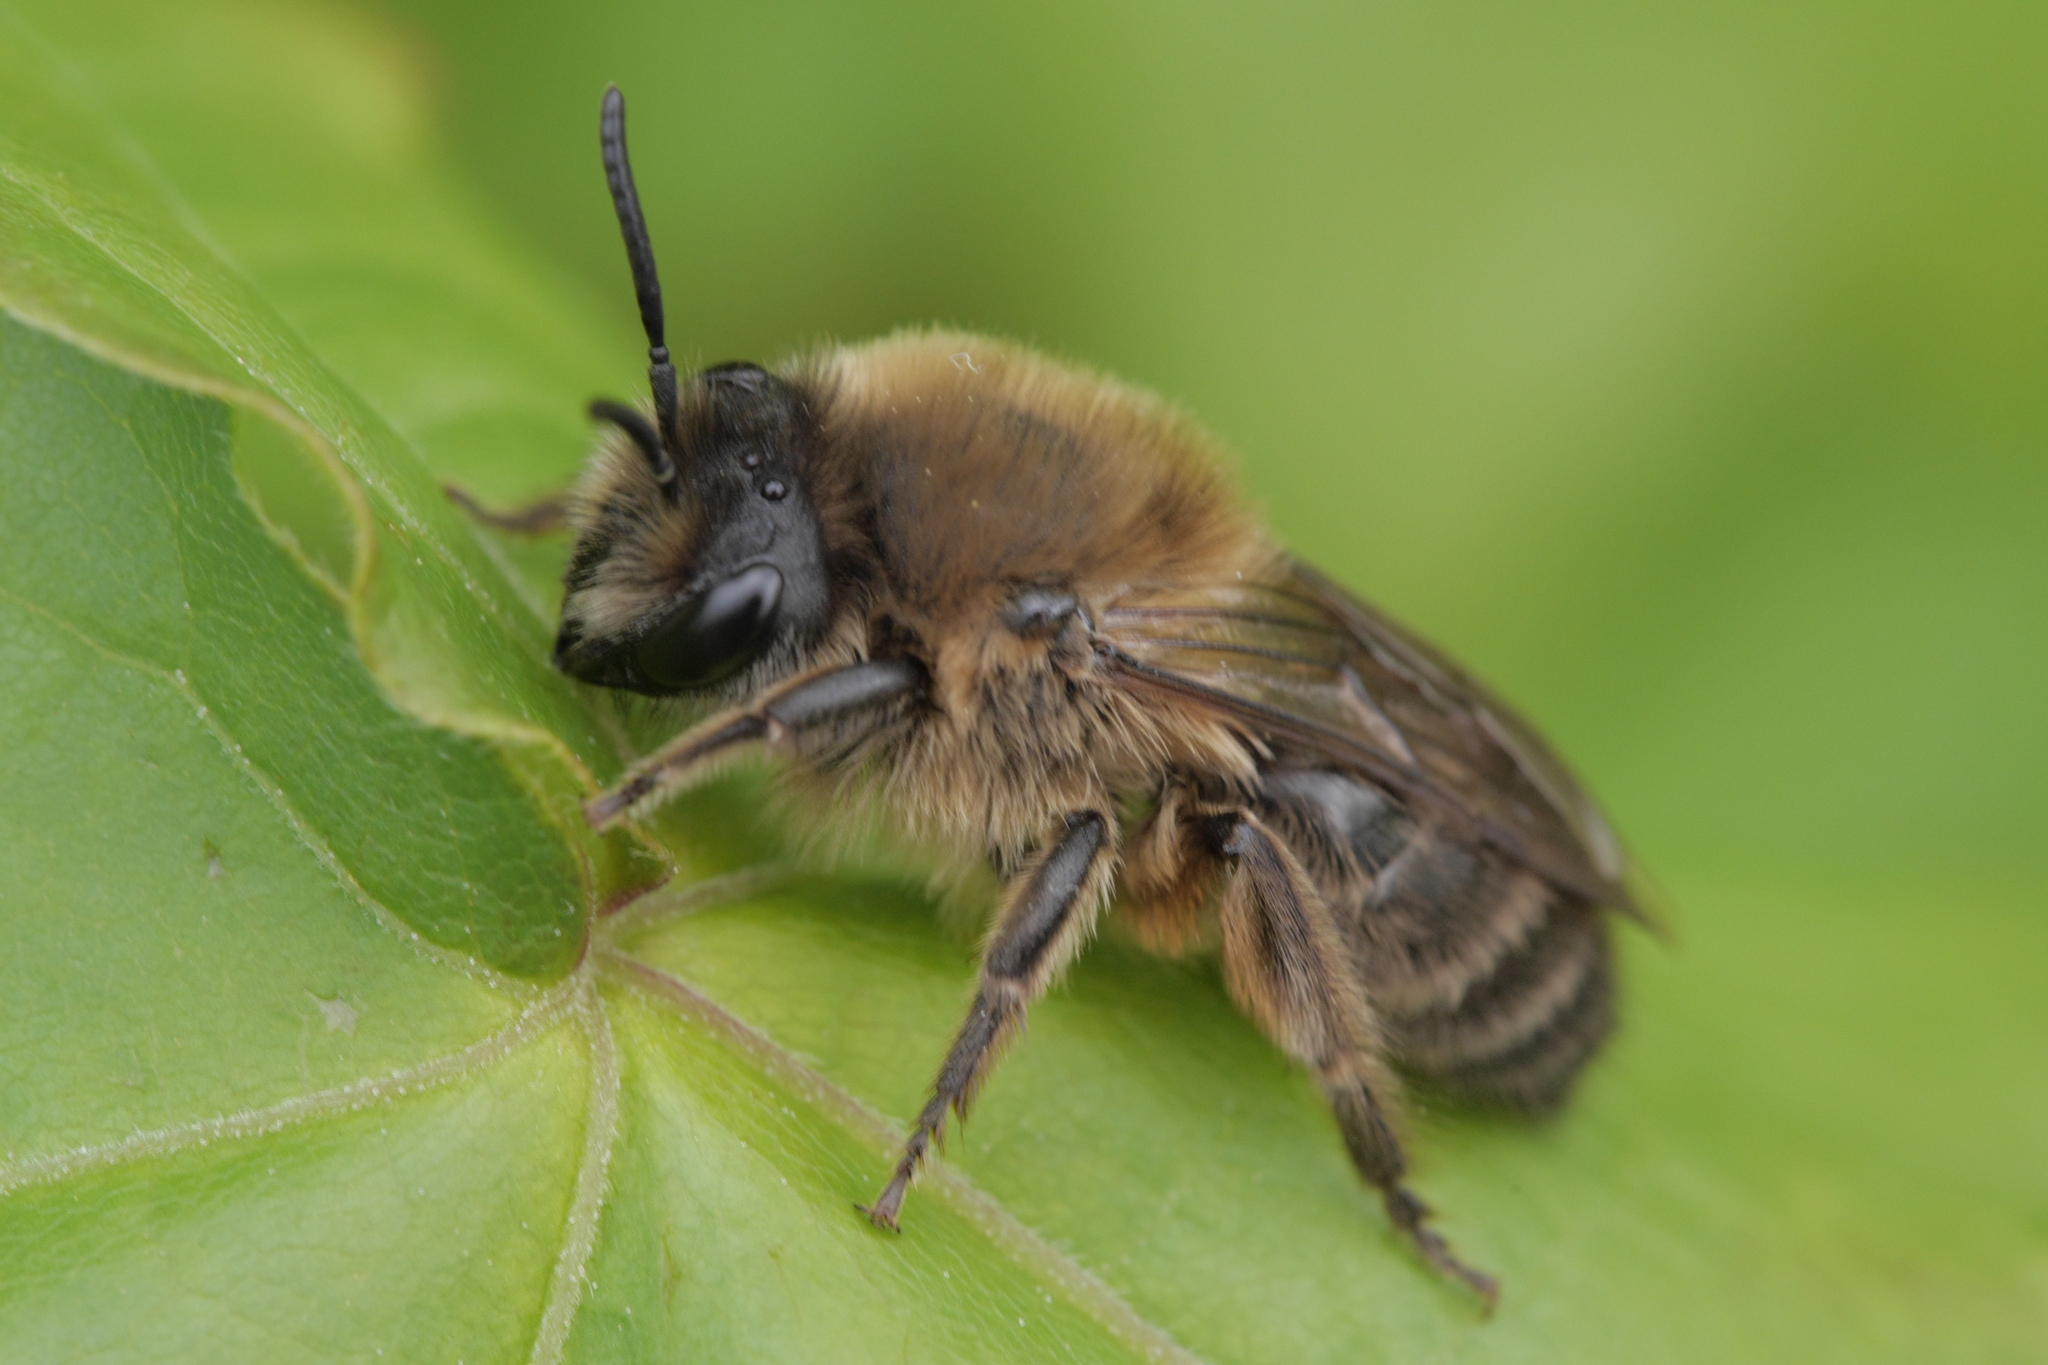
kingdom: Animalia
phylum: Arthropoda
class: Insecta
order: Hymenoptera
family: Colletidae
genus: Colletes
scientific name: Colletes cunicularius
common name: Early colletes
